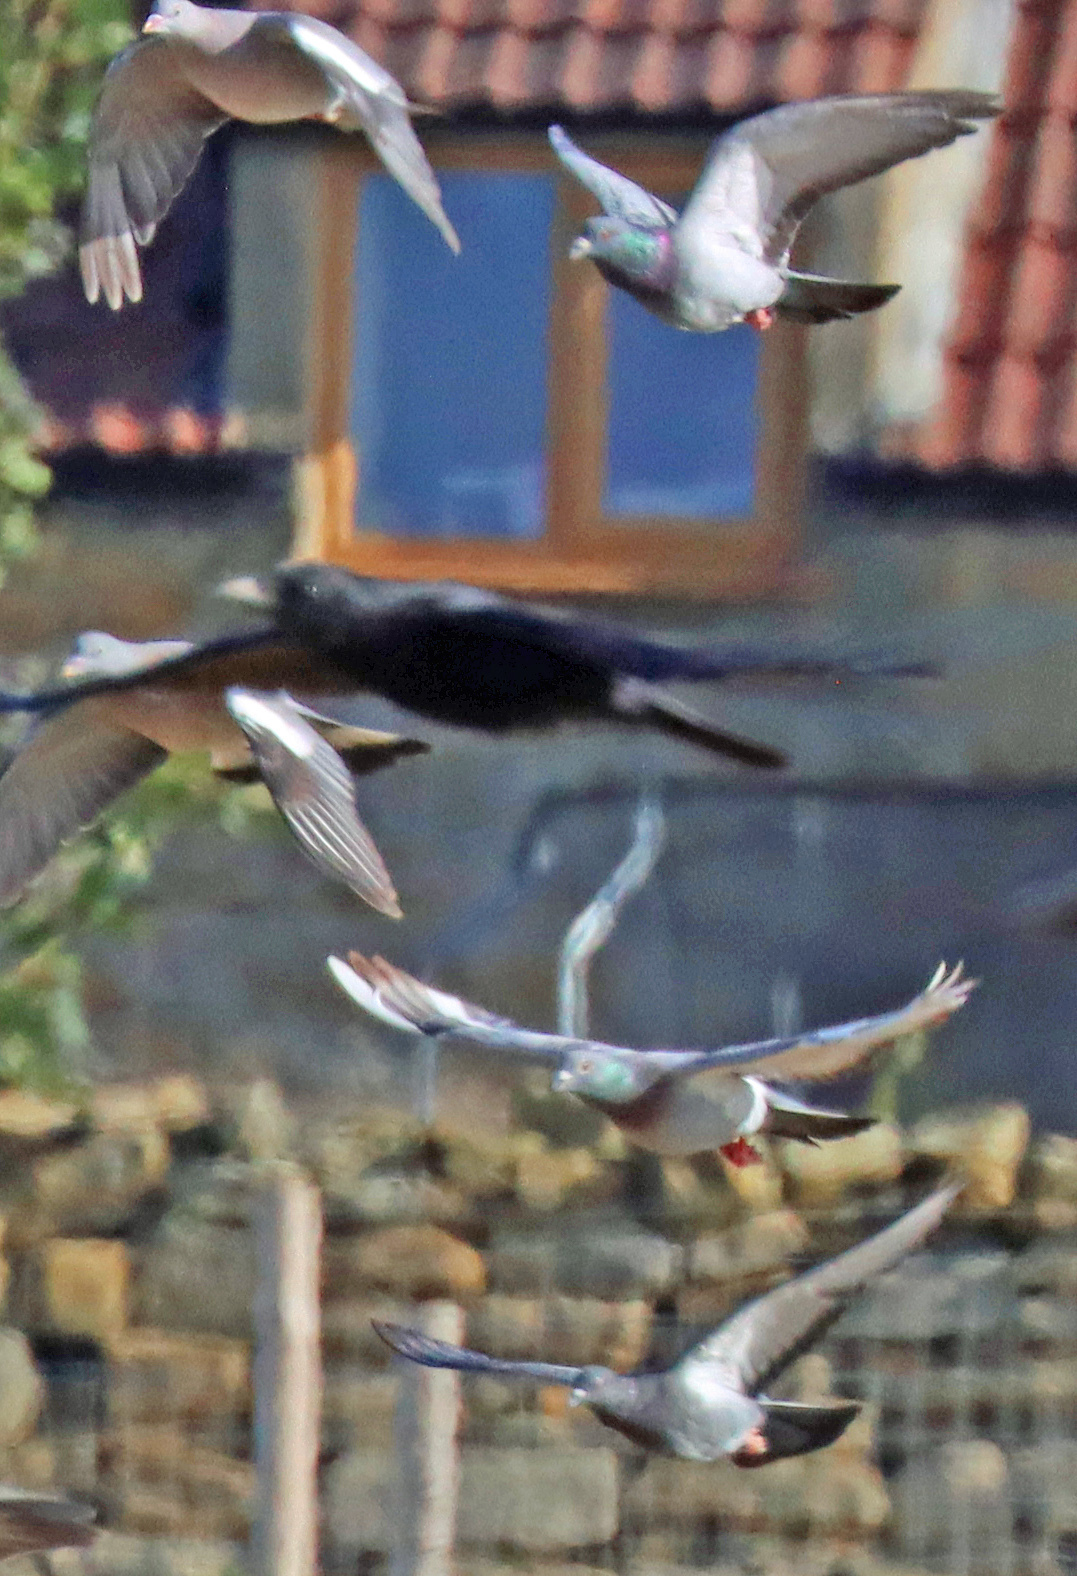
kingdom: Animalia
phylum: Chordata
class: Aves
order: Columbiformes
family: Columbidae
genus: Columba
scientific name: Columba livia
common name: Rock pigeon
